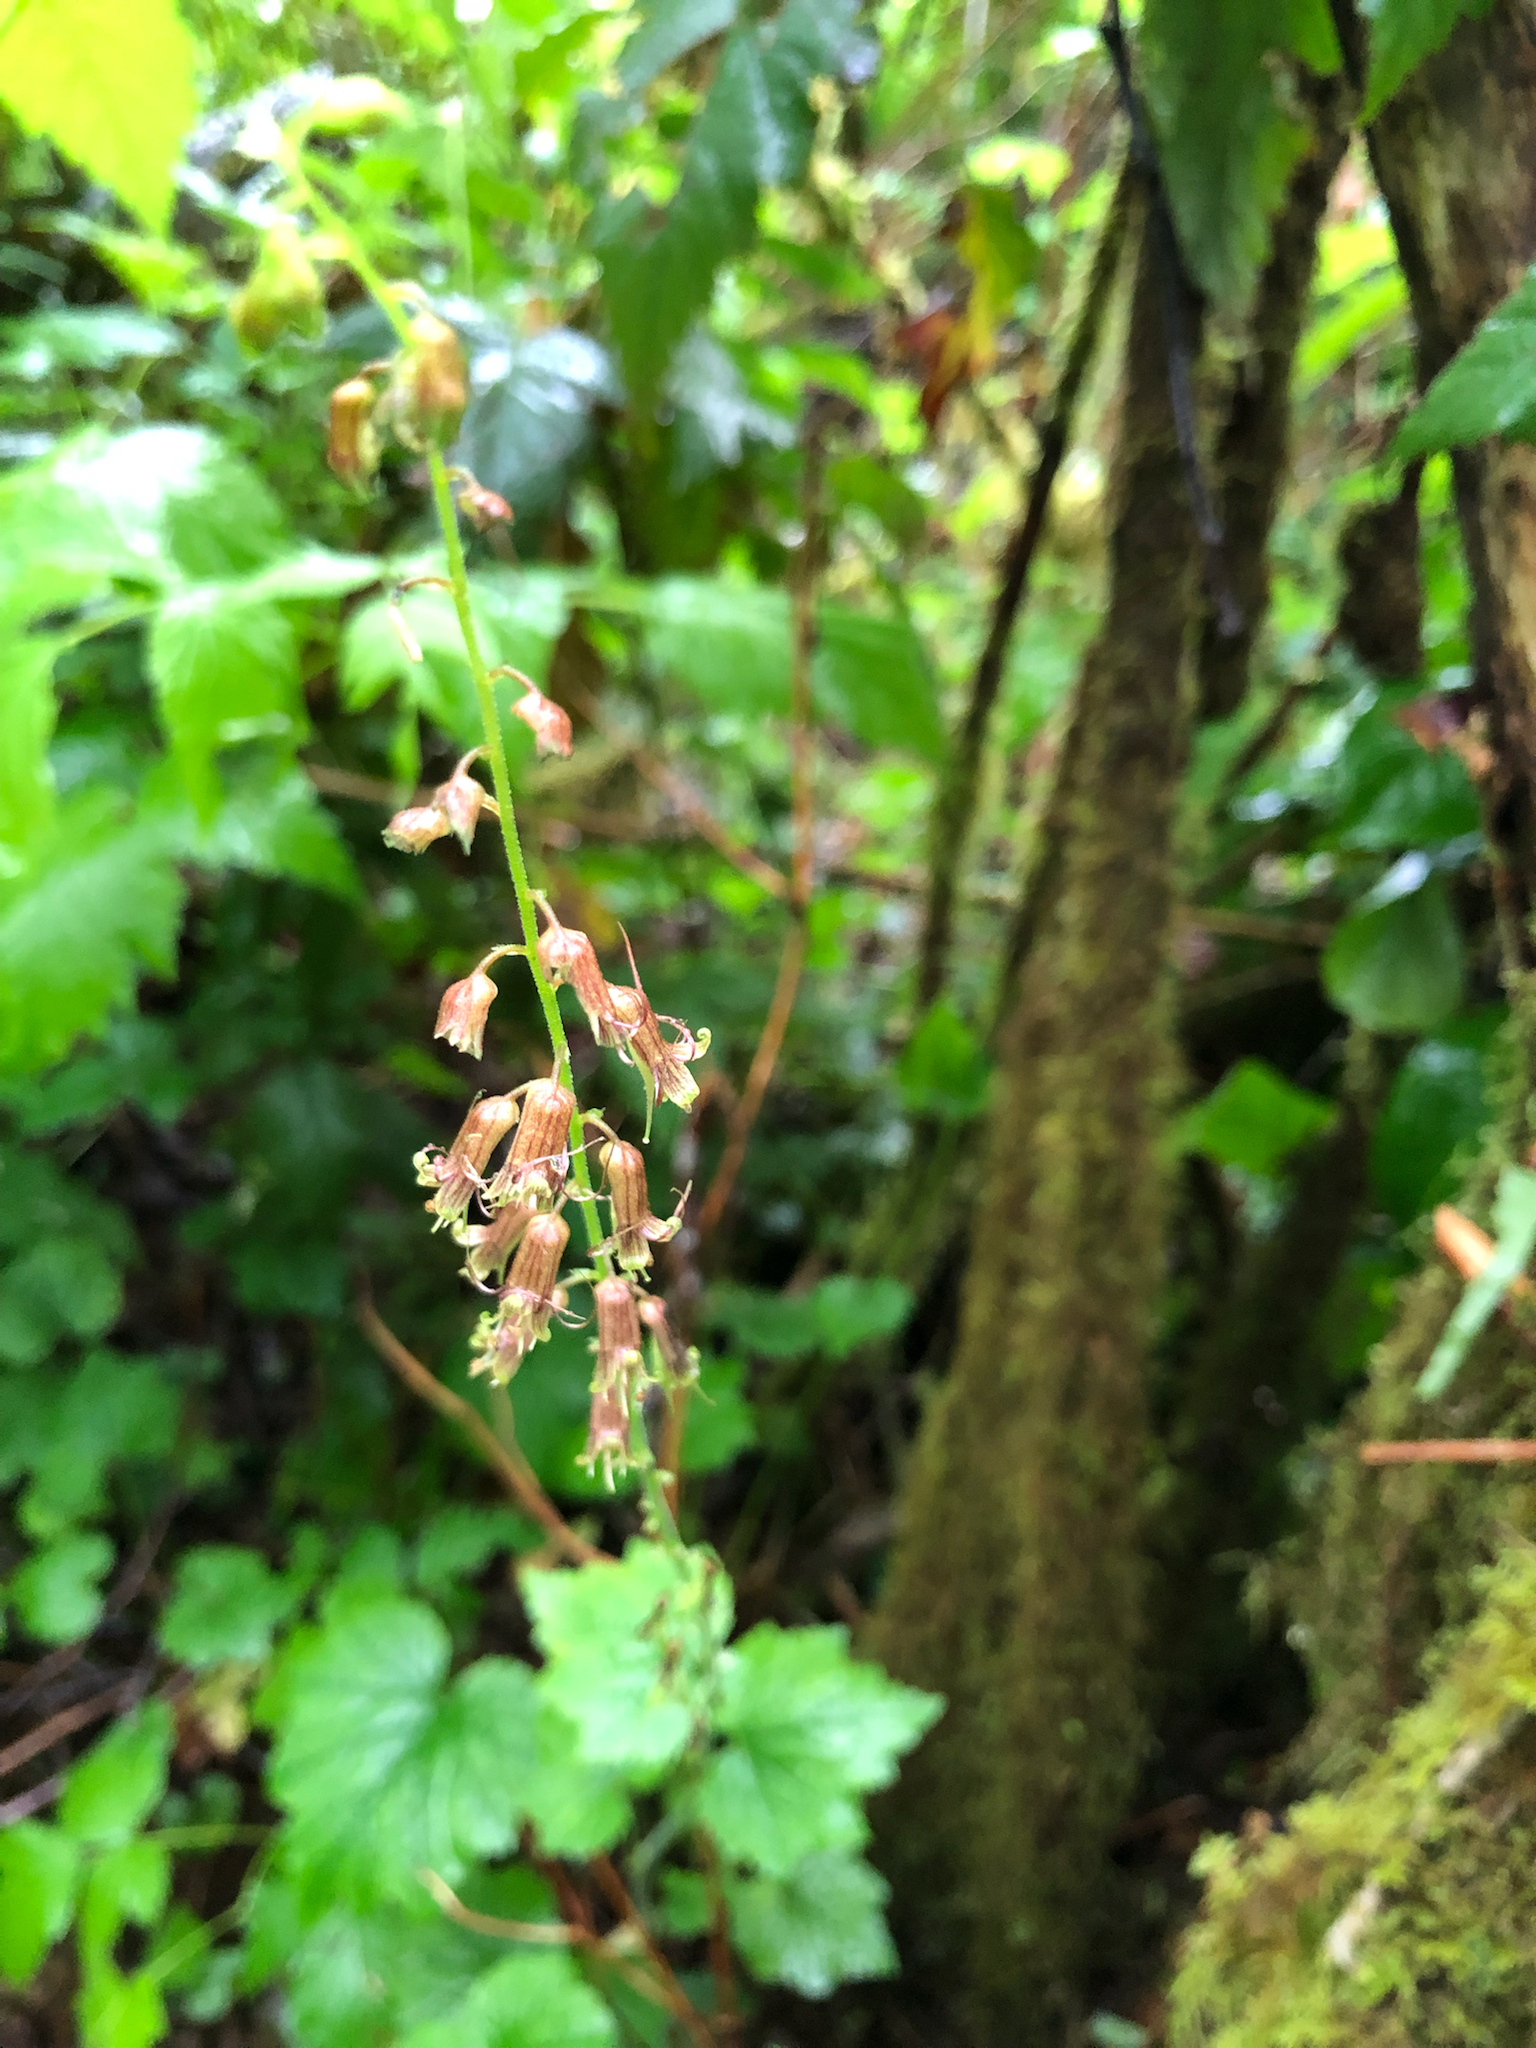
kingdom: Plantae
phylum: Tracheophyta
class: Magnoliopsida
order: Saxifragales
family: Saxifragaceae
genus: Tolmiea
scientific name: Tolmiea menziesii
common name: Pick-a-back-plant
